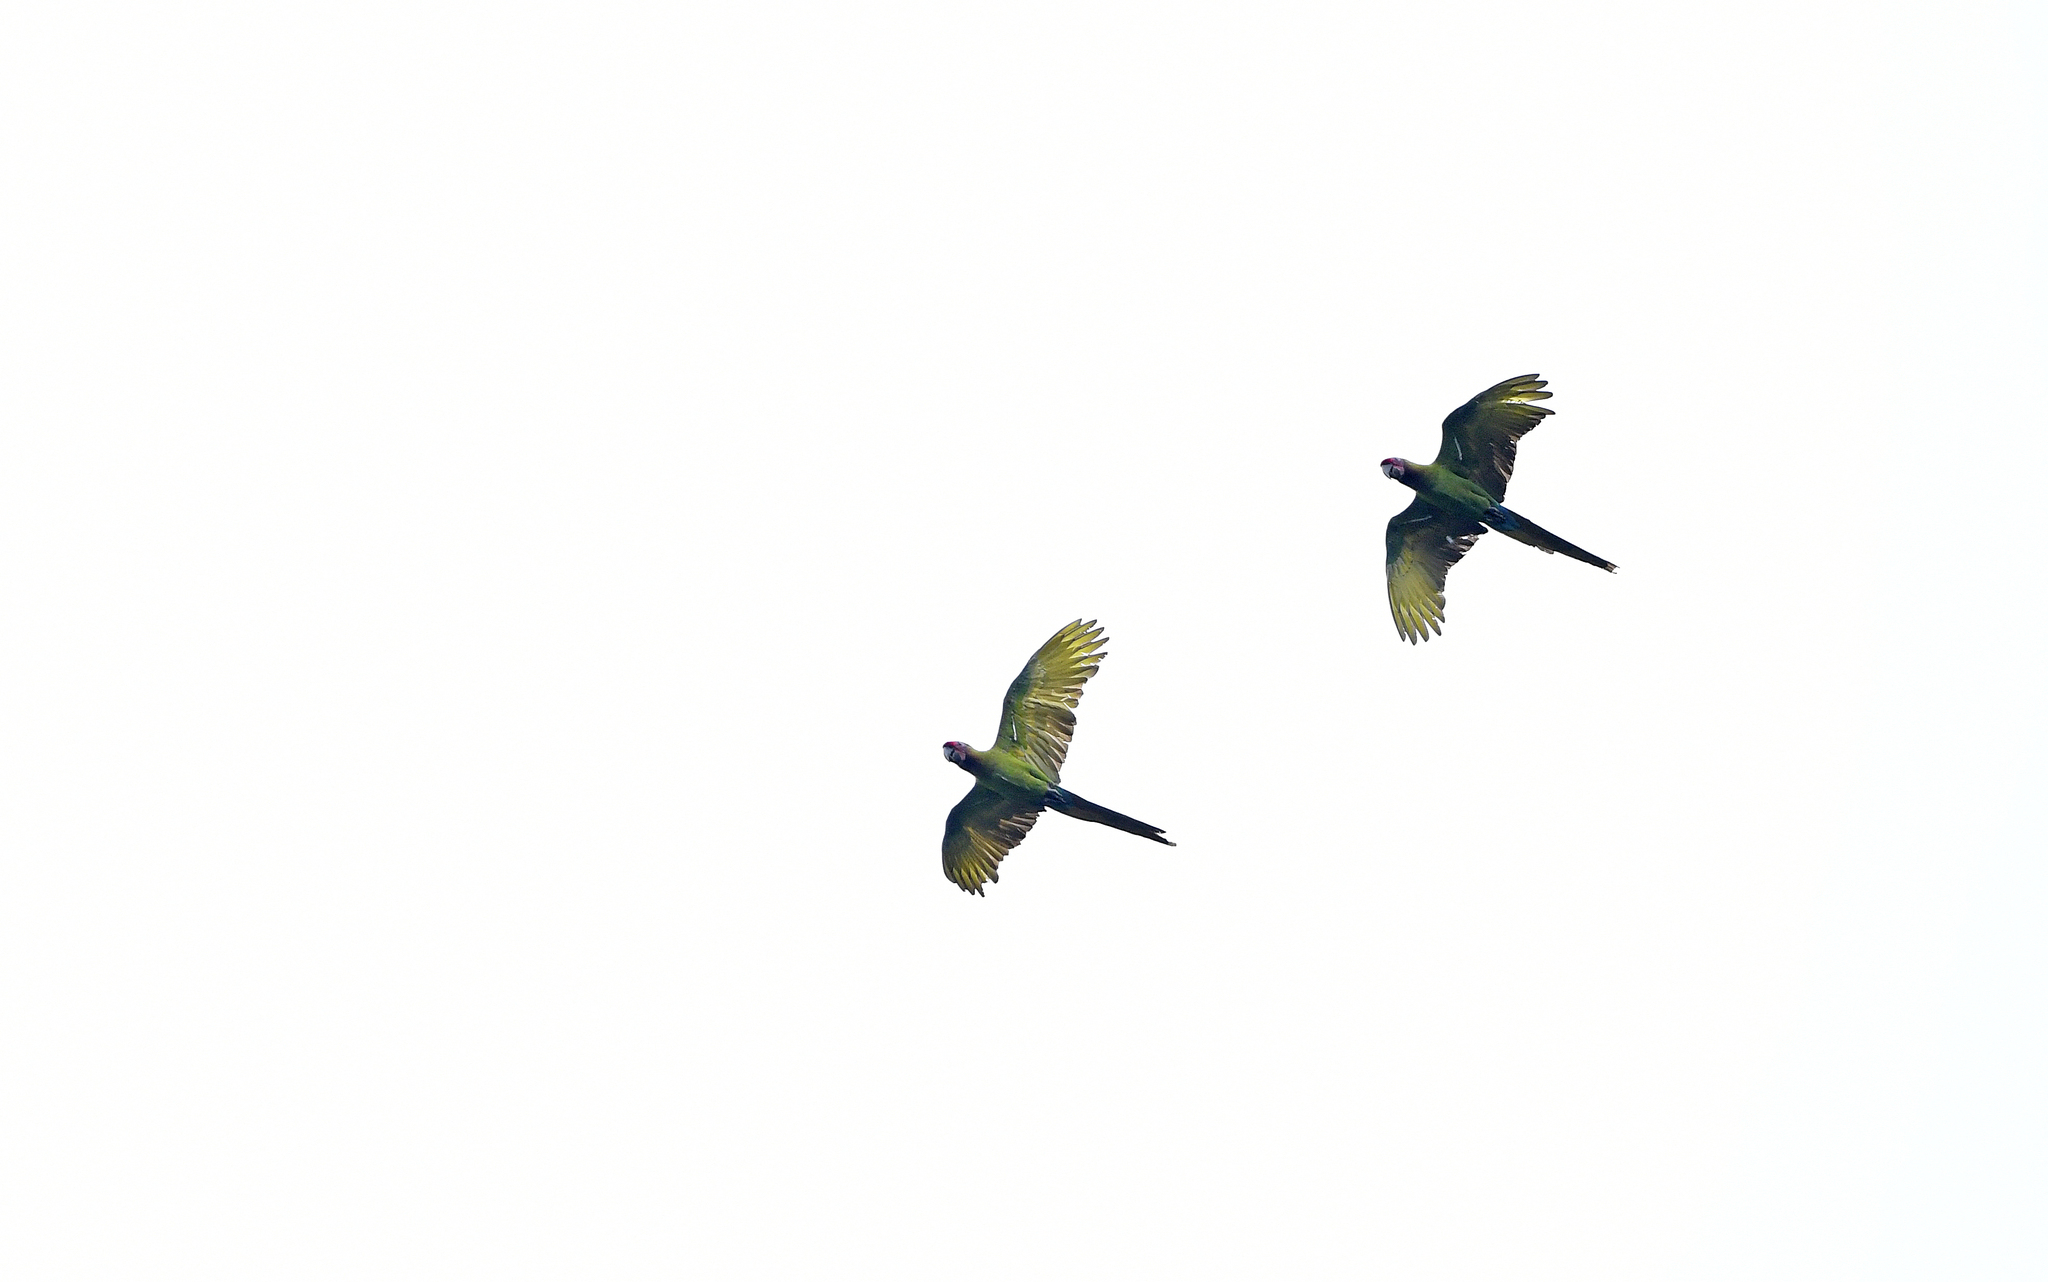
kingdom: Animalia
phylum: Chordata
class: Aves
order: Psittaciformes
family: Psittacidae
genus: Ara
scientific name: Ara militaris
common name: Military macaw
